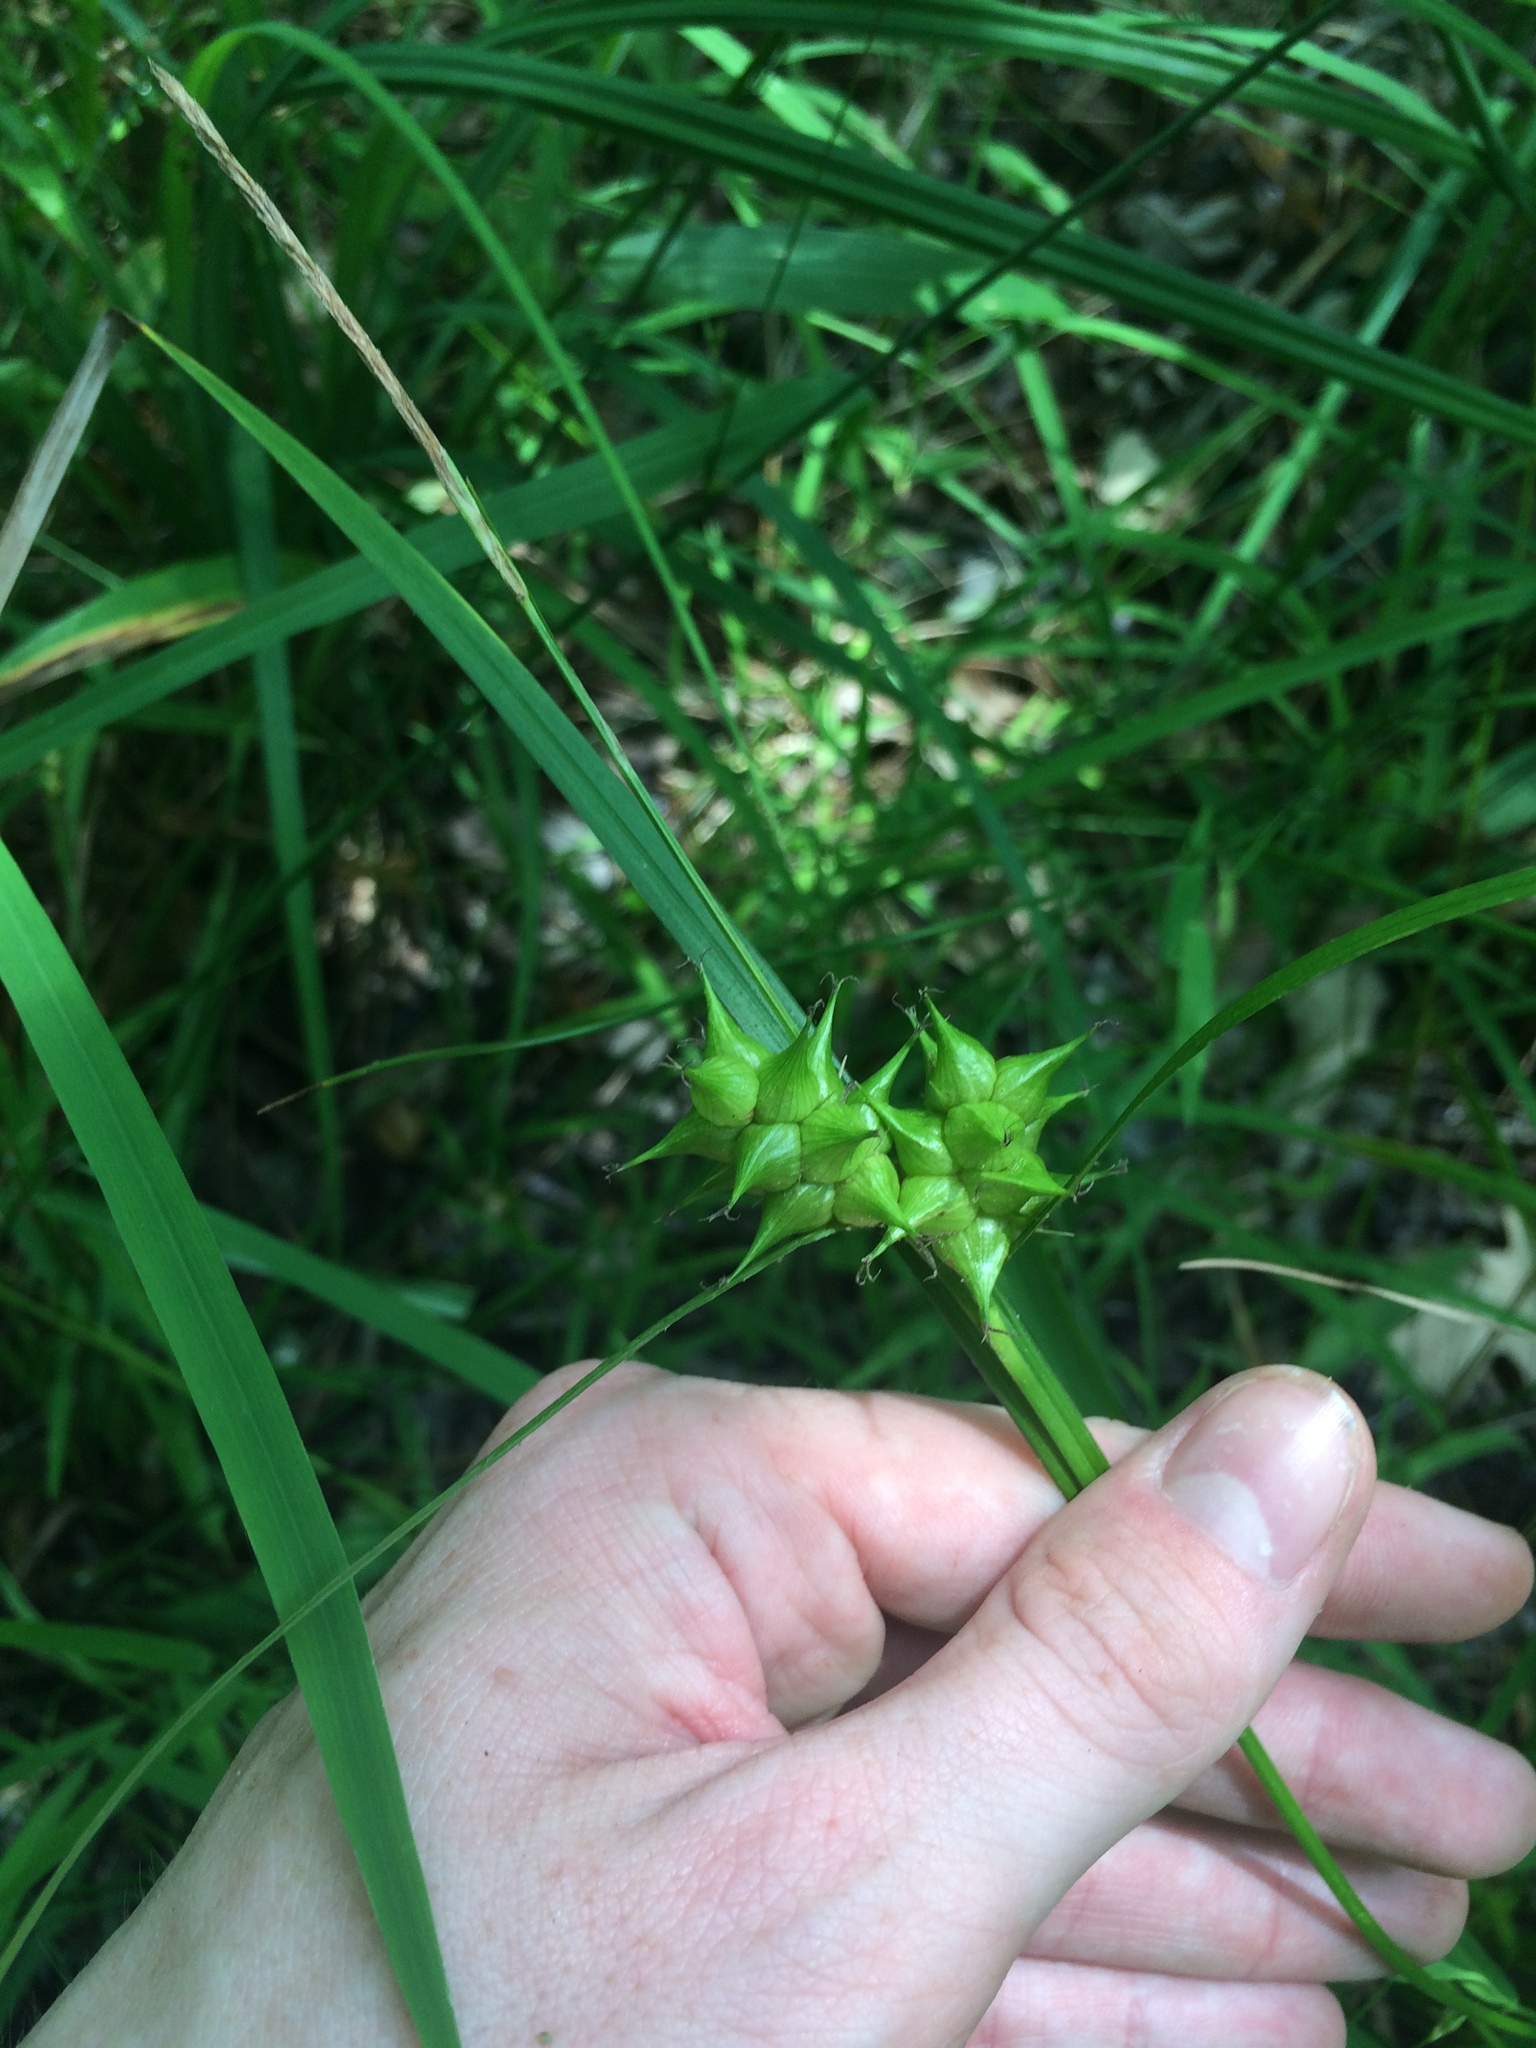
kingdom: Plantae
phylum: Tracheophyta
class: Liliopsida
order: Poales
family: Cyperaceae
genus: Carex
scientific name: Carex intumescens
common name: Greater bladder sedge
